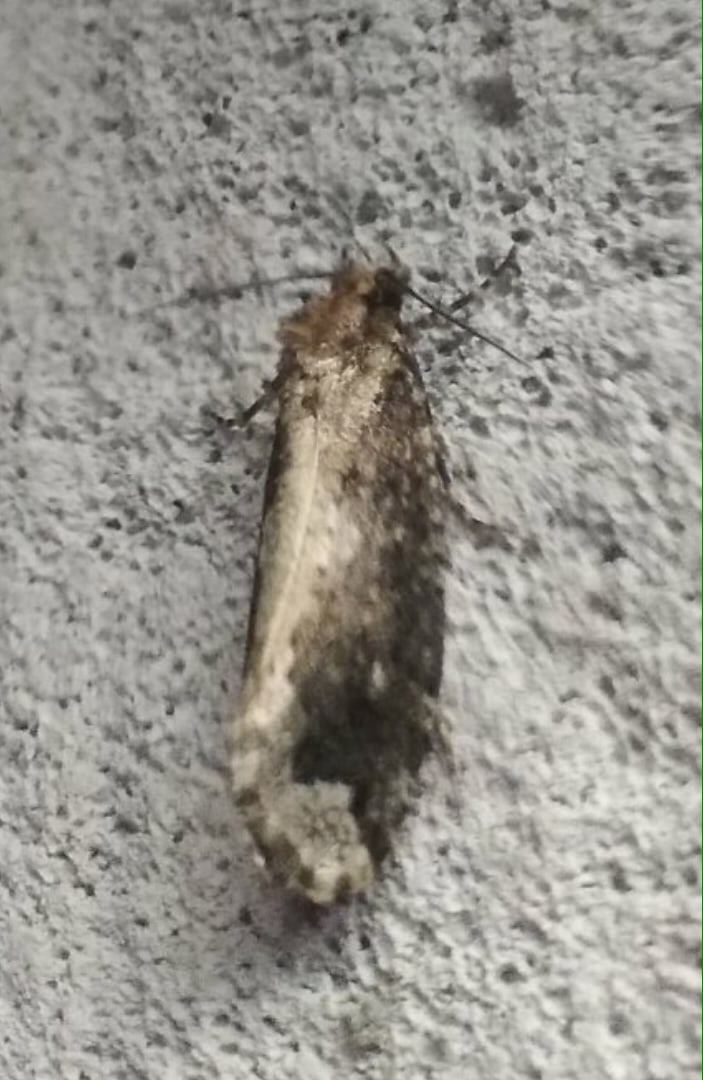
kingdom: Animalia
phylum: Arthropoda
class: Insecta
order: Lepidoptera
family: Tineidae
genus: Scardia
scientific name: Scardia boletella
